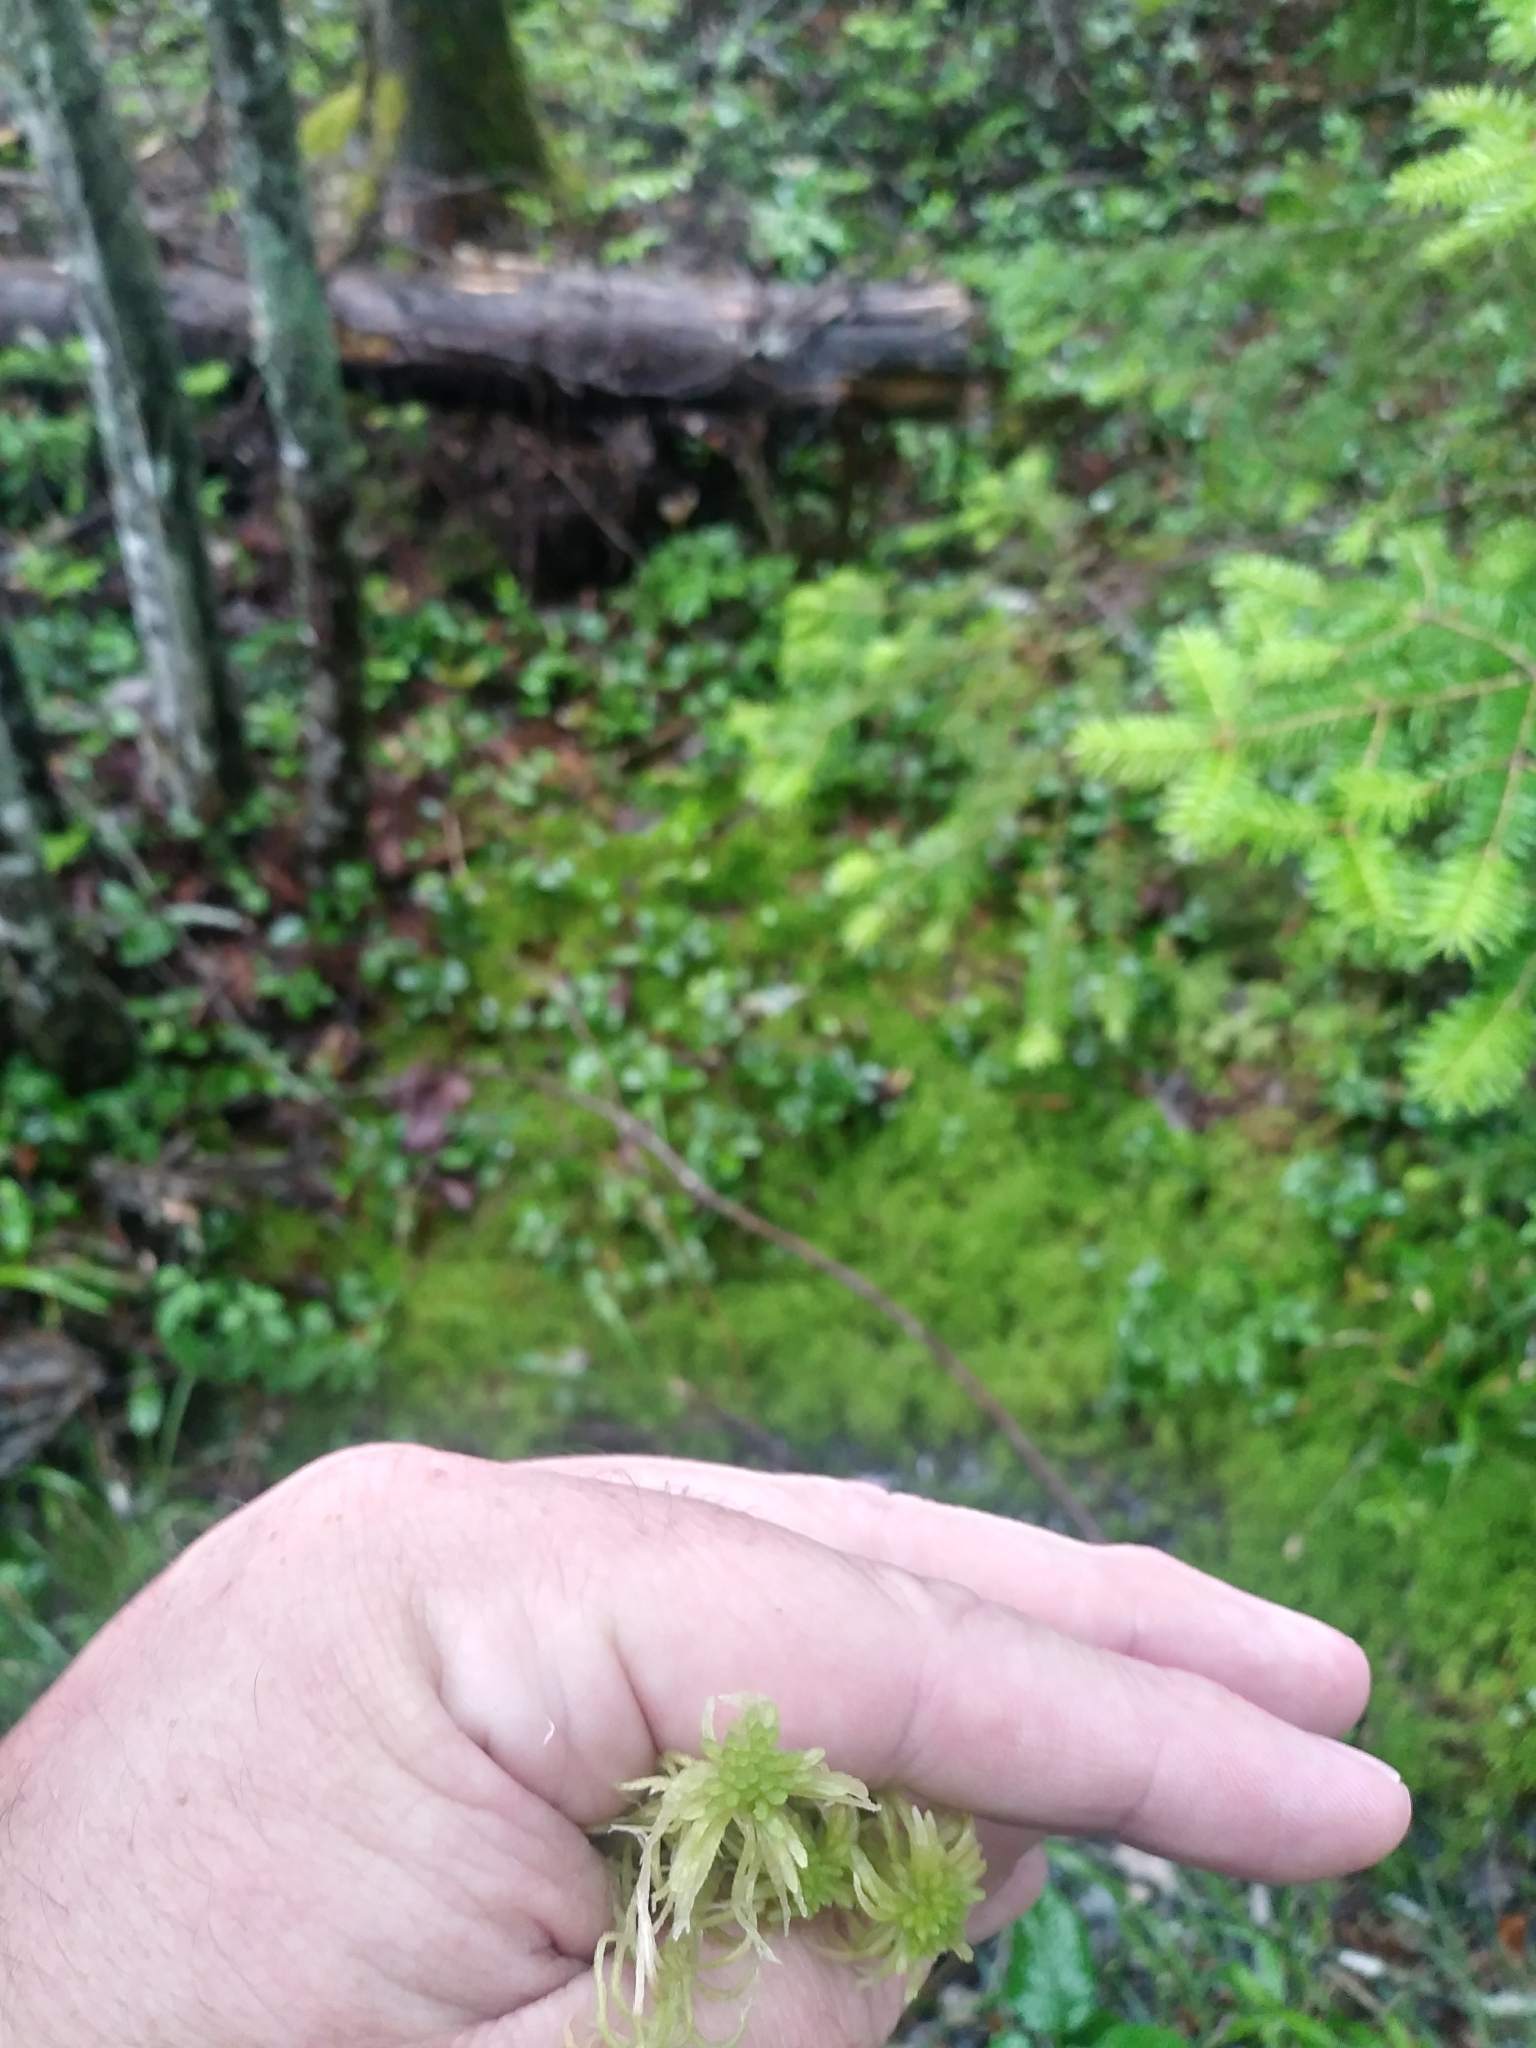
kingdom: Plantae
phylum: Bryophyta
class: Sphagnopsida
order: Sphagnales
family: Sphagnaceae
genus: Sphagnum
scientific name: Sphagnum fallax
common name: Flat-top peat moss
